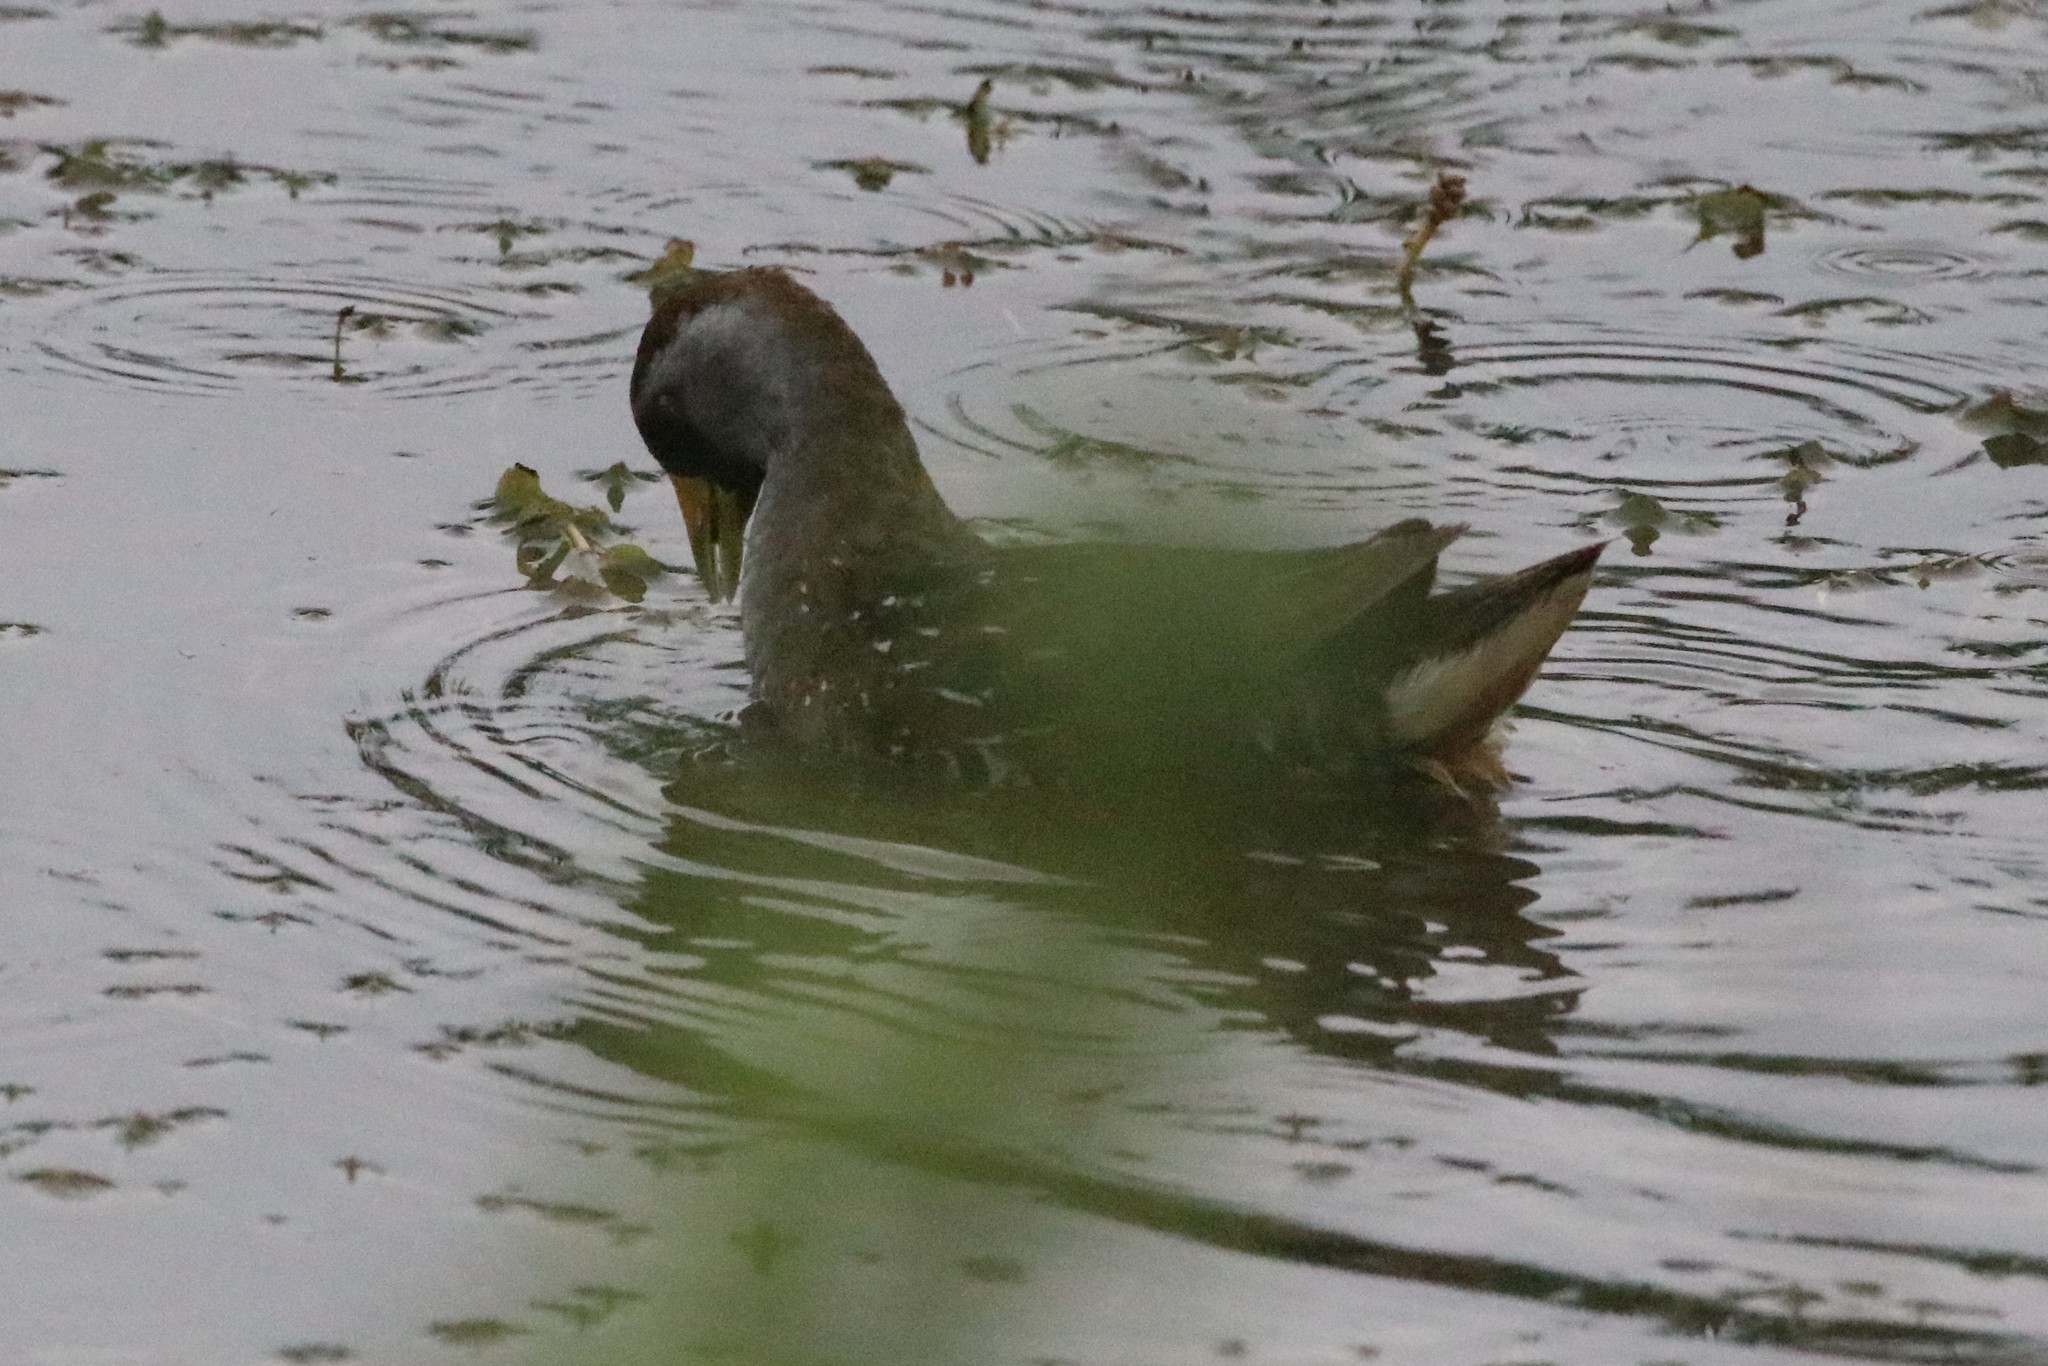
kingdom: Animalia
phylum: Chordata
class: Aves
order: Gruiformes
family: Rallidae
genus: Porzana
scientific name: Porzana carolina
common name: Sora
